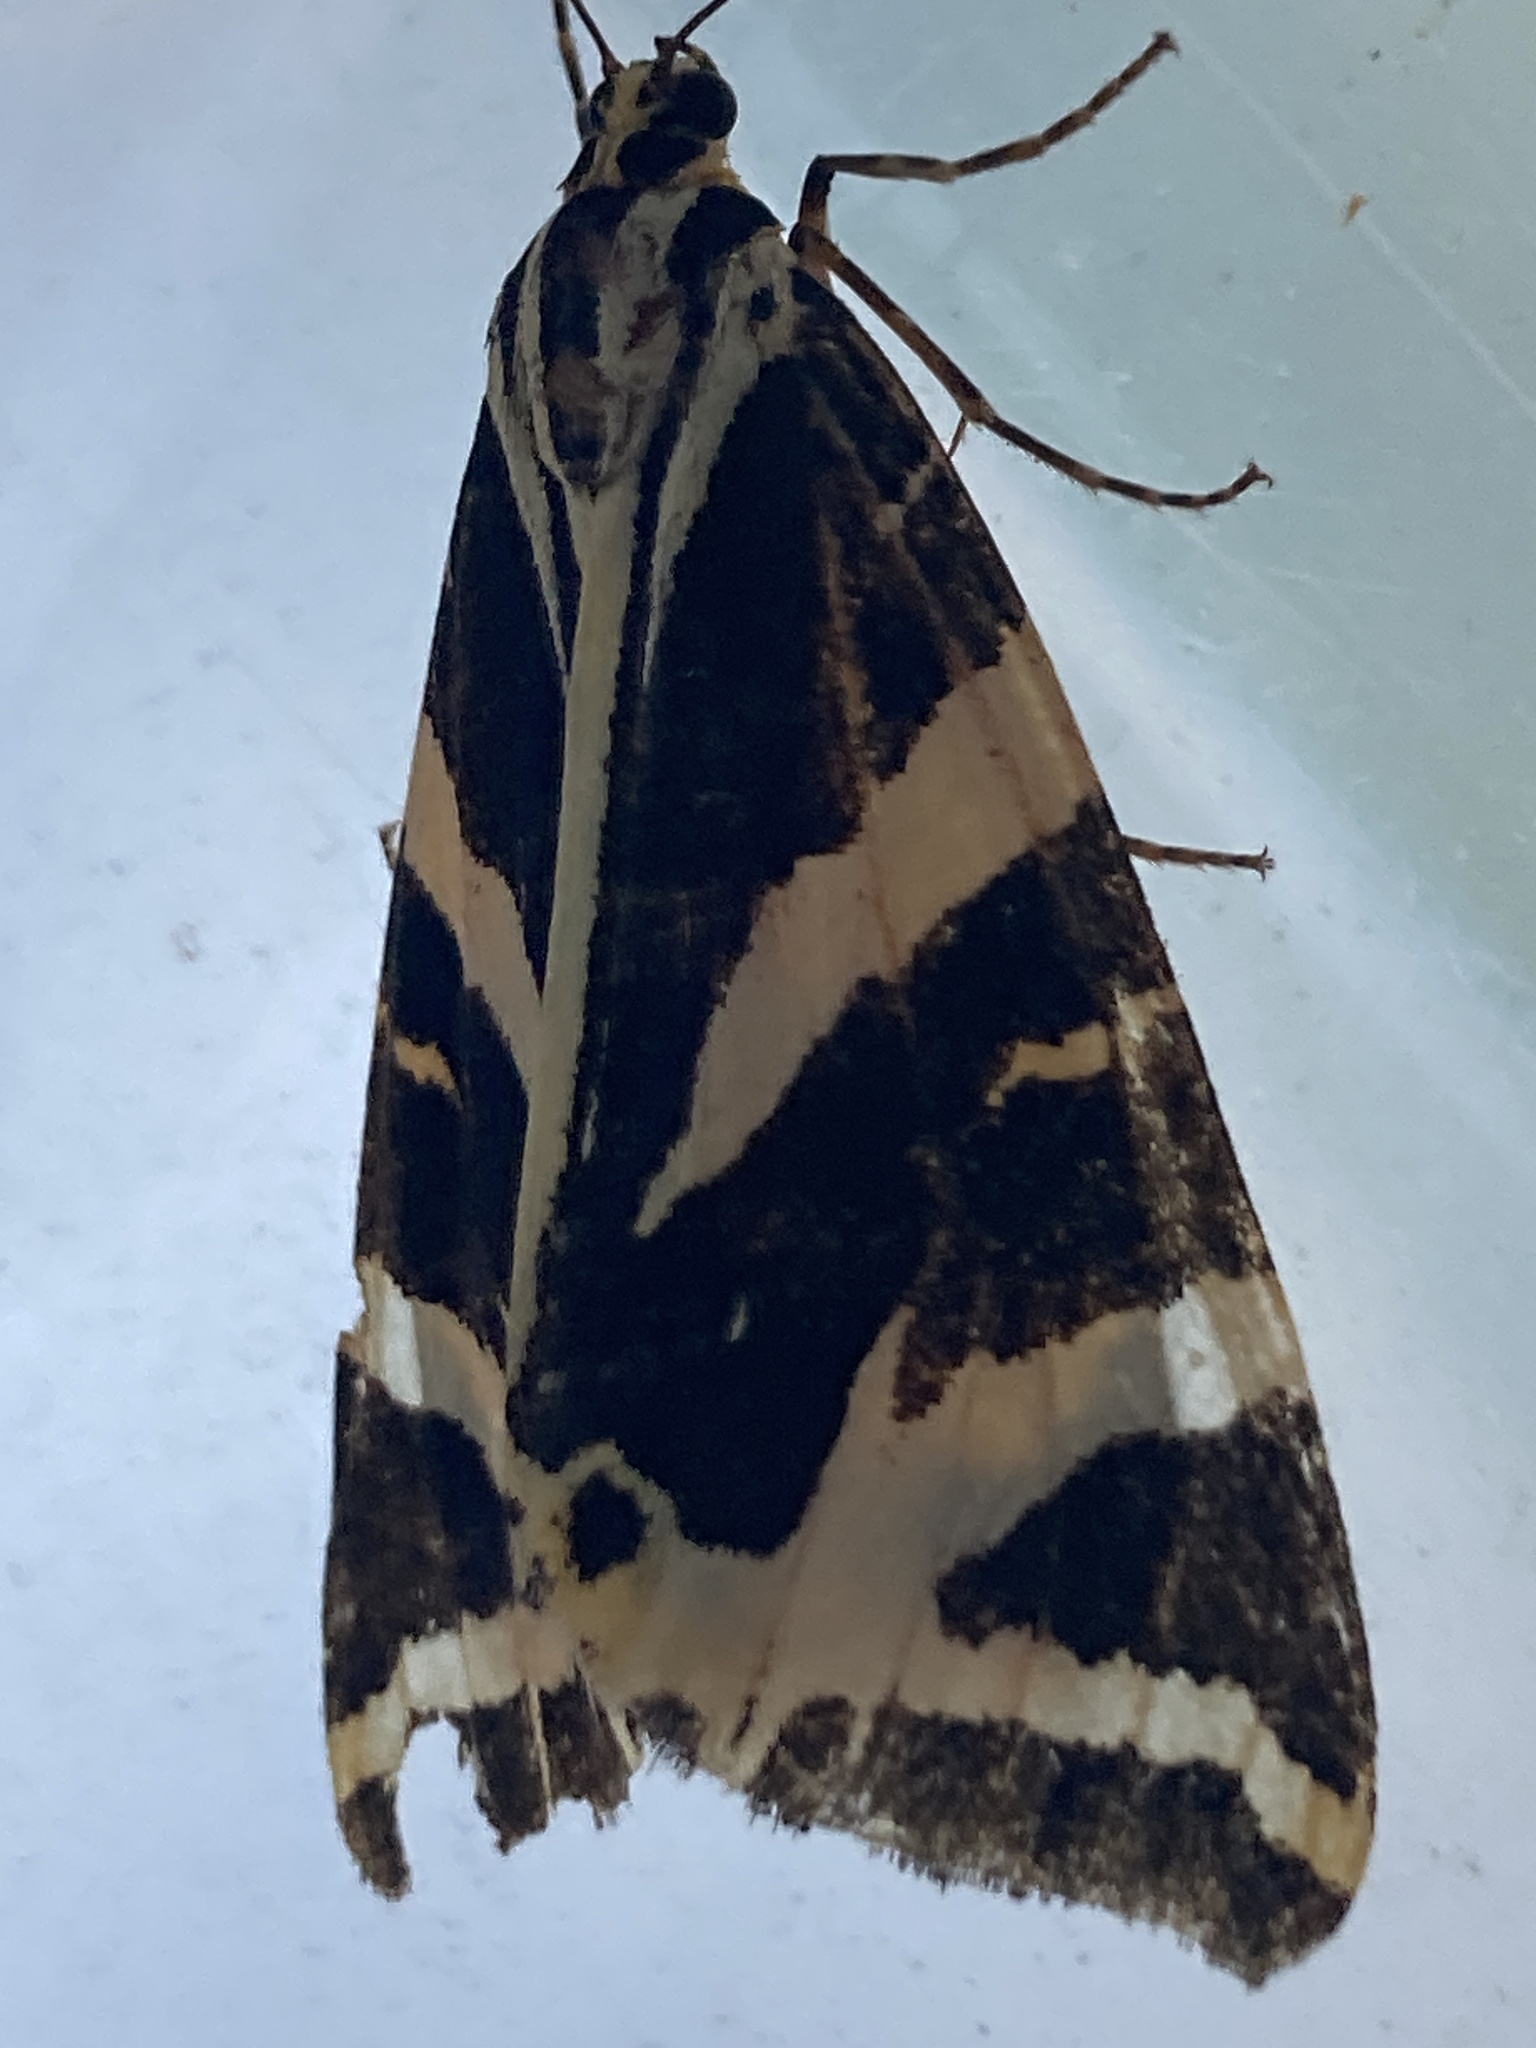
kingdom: Animalia
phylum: Arthropoda
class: Insecta
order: Lepidoptera
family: Erebidae
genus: Euplagia
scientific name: Euplagia quadripunctaria
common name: Jersey tiger
